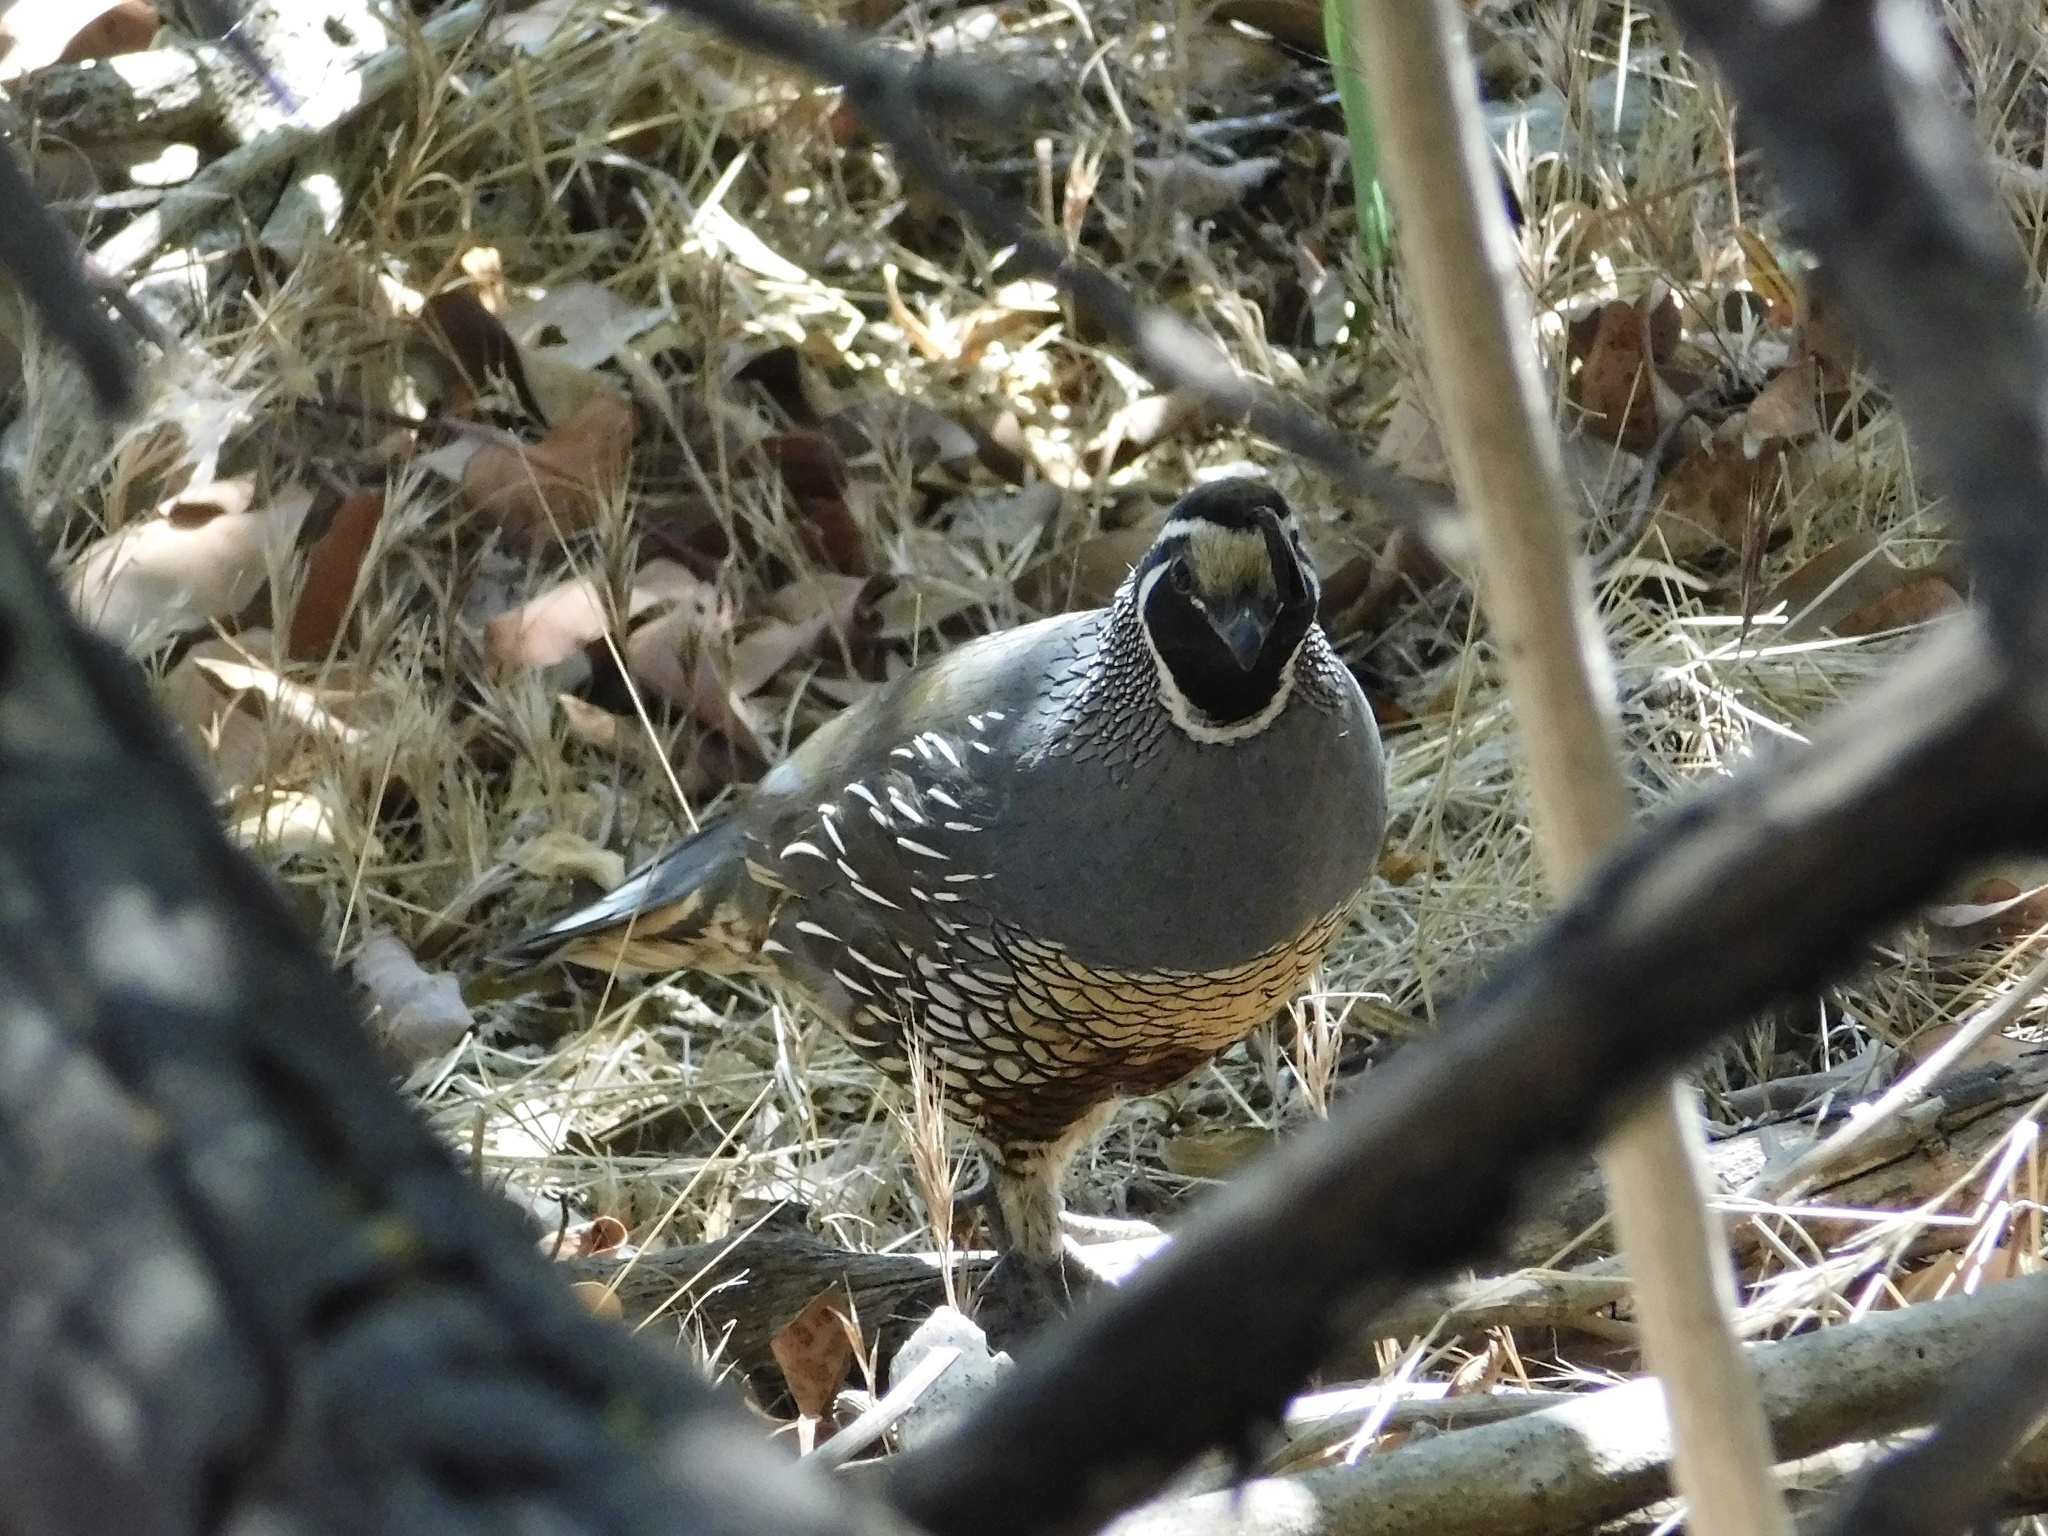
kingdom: Animalia
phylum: Chordata
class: Aves
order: Galliformes
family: Odontophoridae
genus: Callipepla
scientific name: Callipepla californica
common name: California quail
